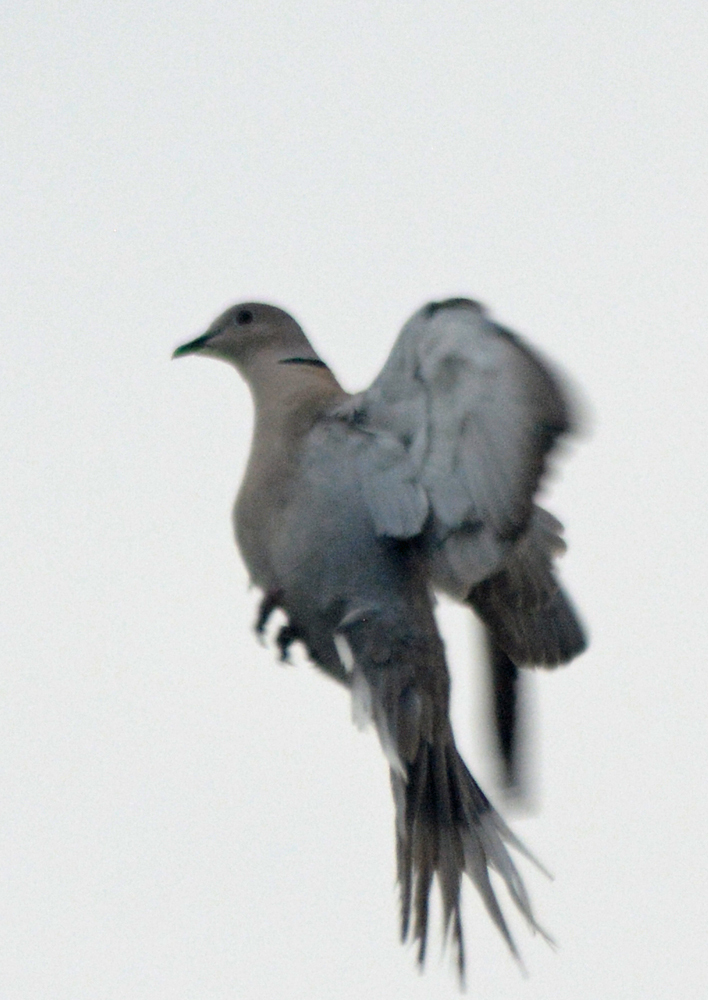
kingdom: Animalia
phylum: Chordata
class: Aves
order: Columbiformes
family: Columbidae
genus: Streptopelia
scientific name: Streptopelia decaocto
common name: Eurasian collared dove
